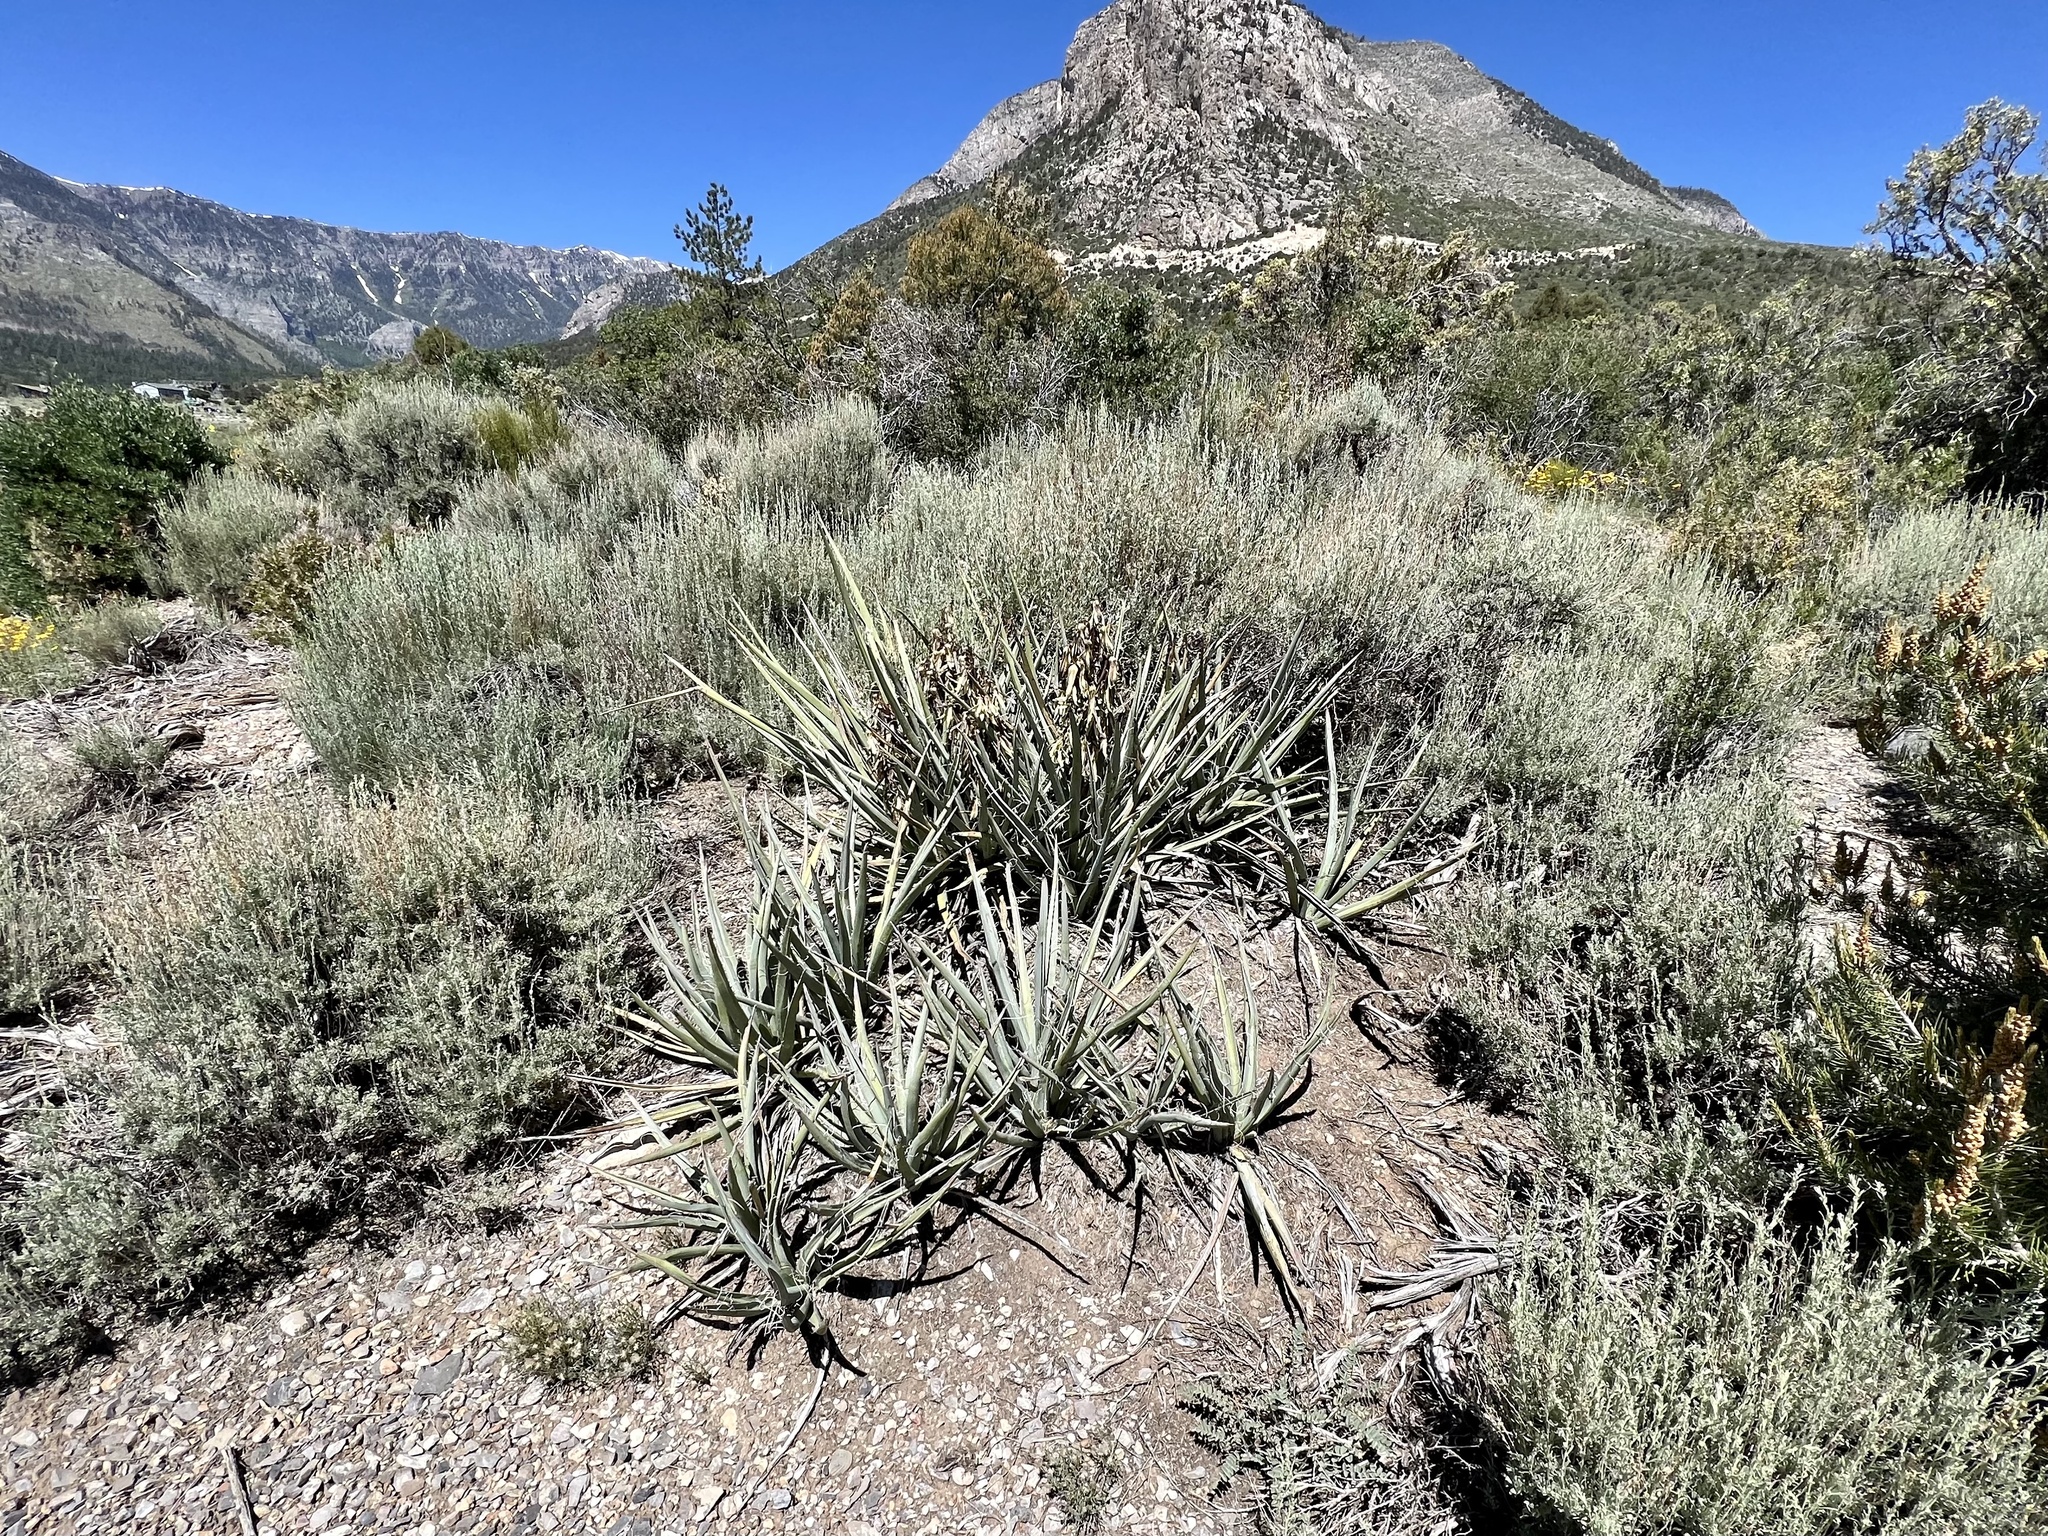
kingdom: Plantae
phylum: Tracheophyta
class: Liliopsida
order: Asparagales
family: Asparagaceae
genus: Yucca
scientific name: Yucca baccata
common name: Banana yucca
